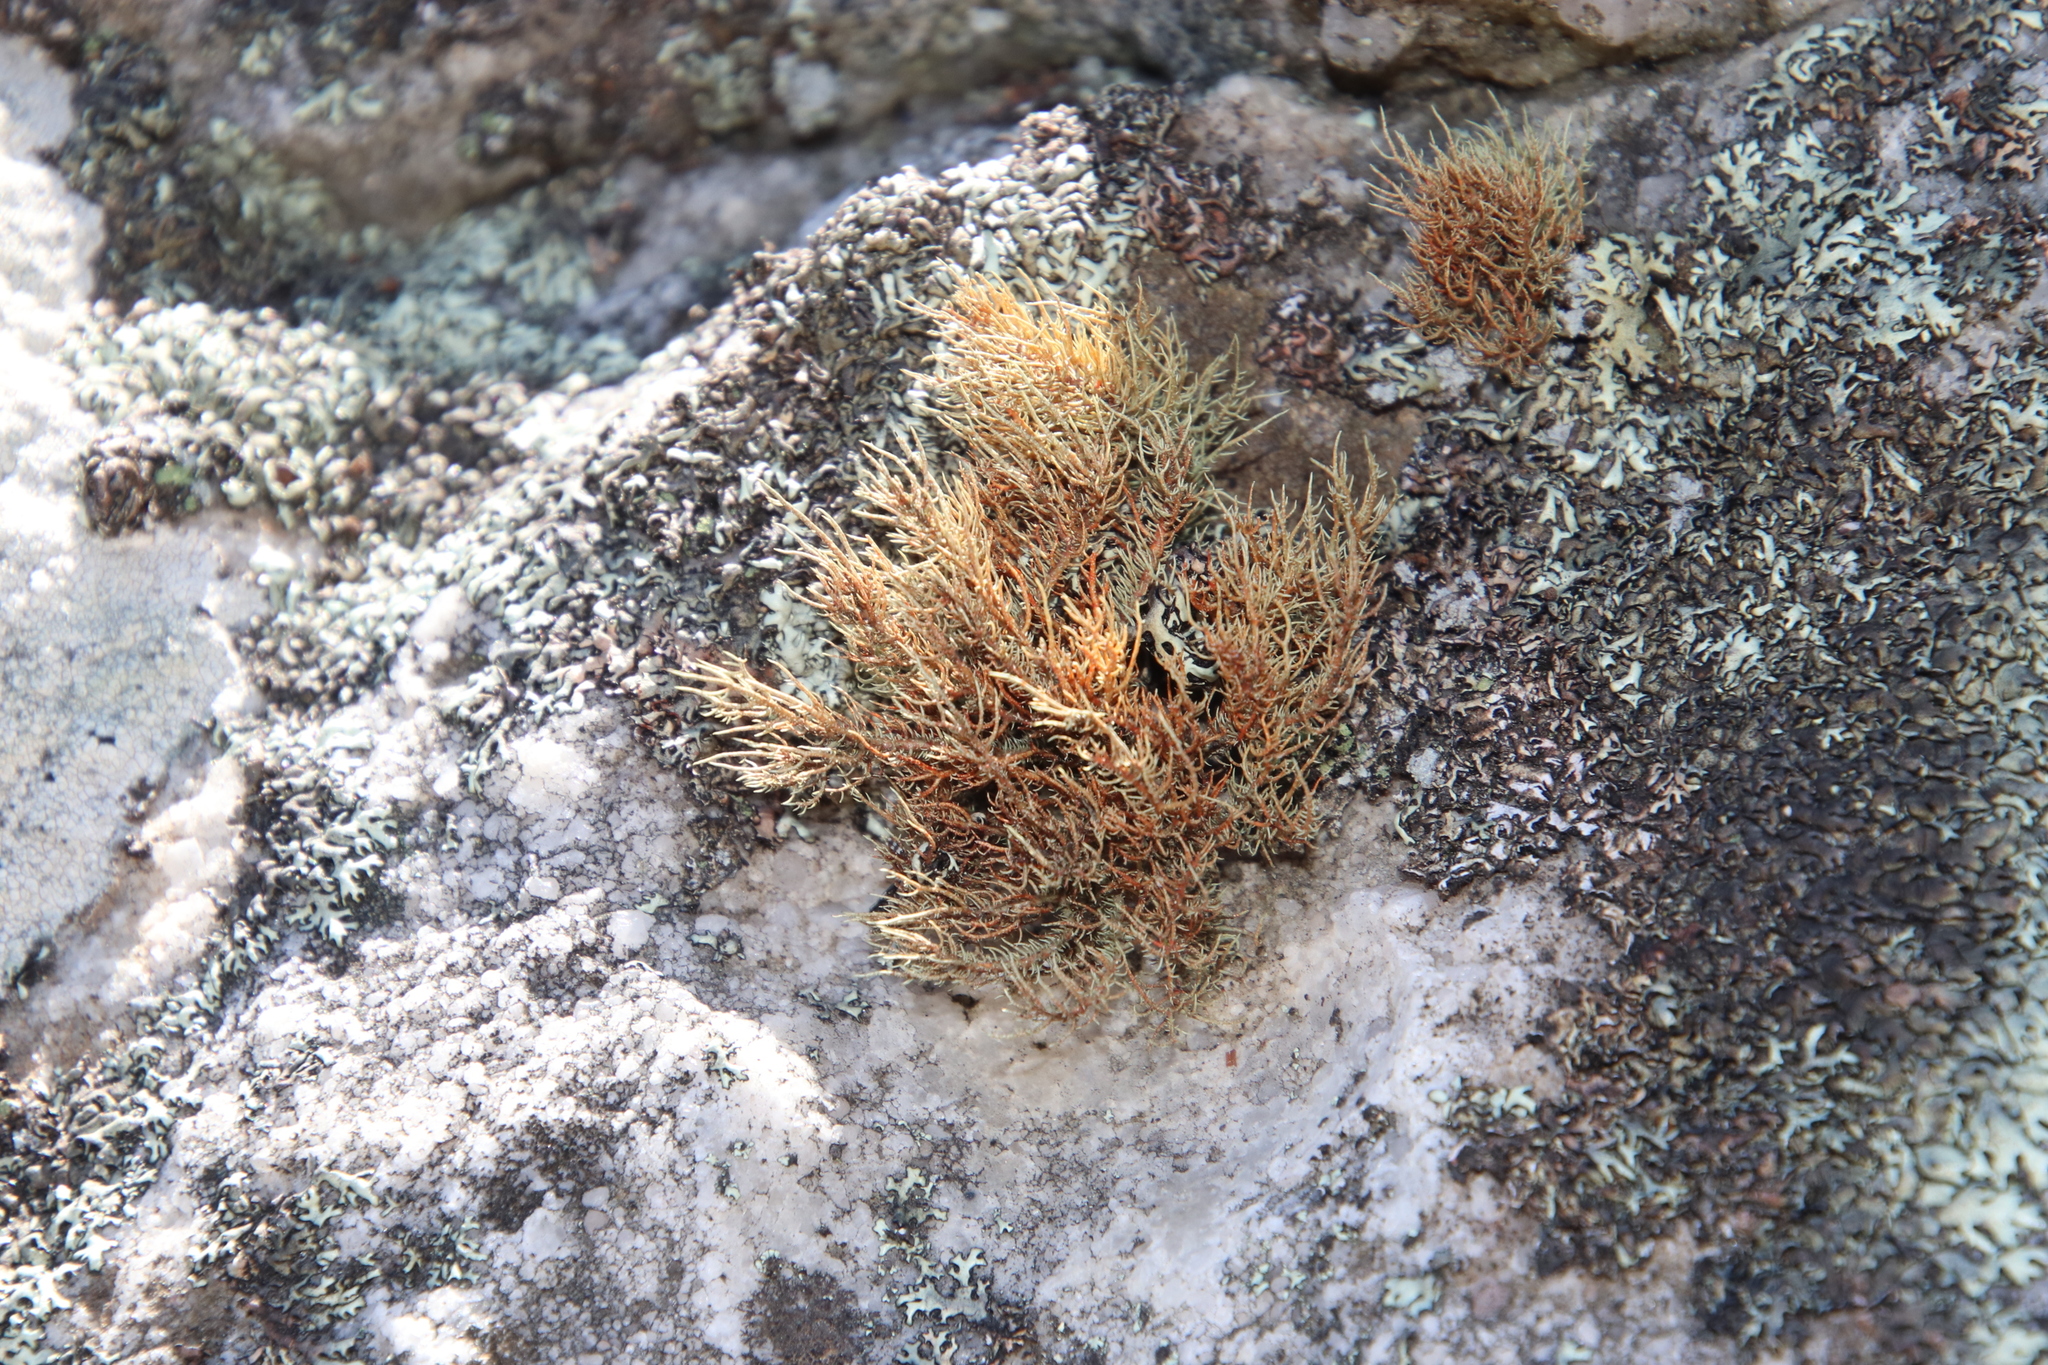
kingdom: Fungi
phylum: Ascomycota
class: Lecanoromycetes
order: Lecanorales
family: Parmeliaceae
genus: Usnea
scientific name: Usnea maculata
